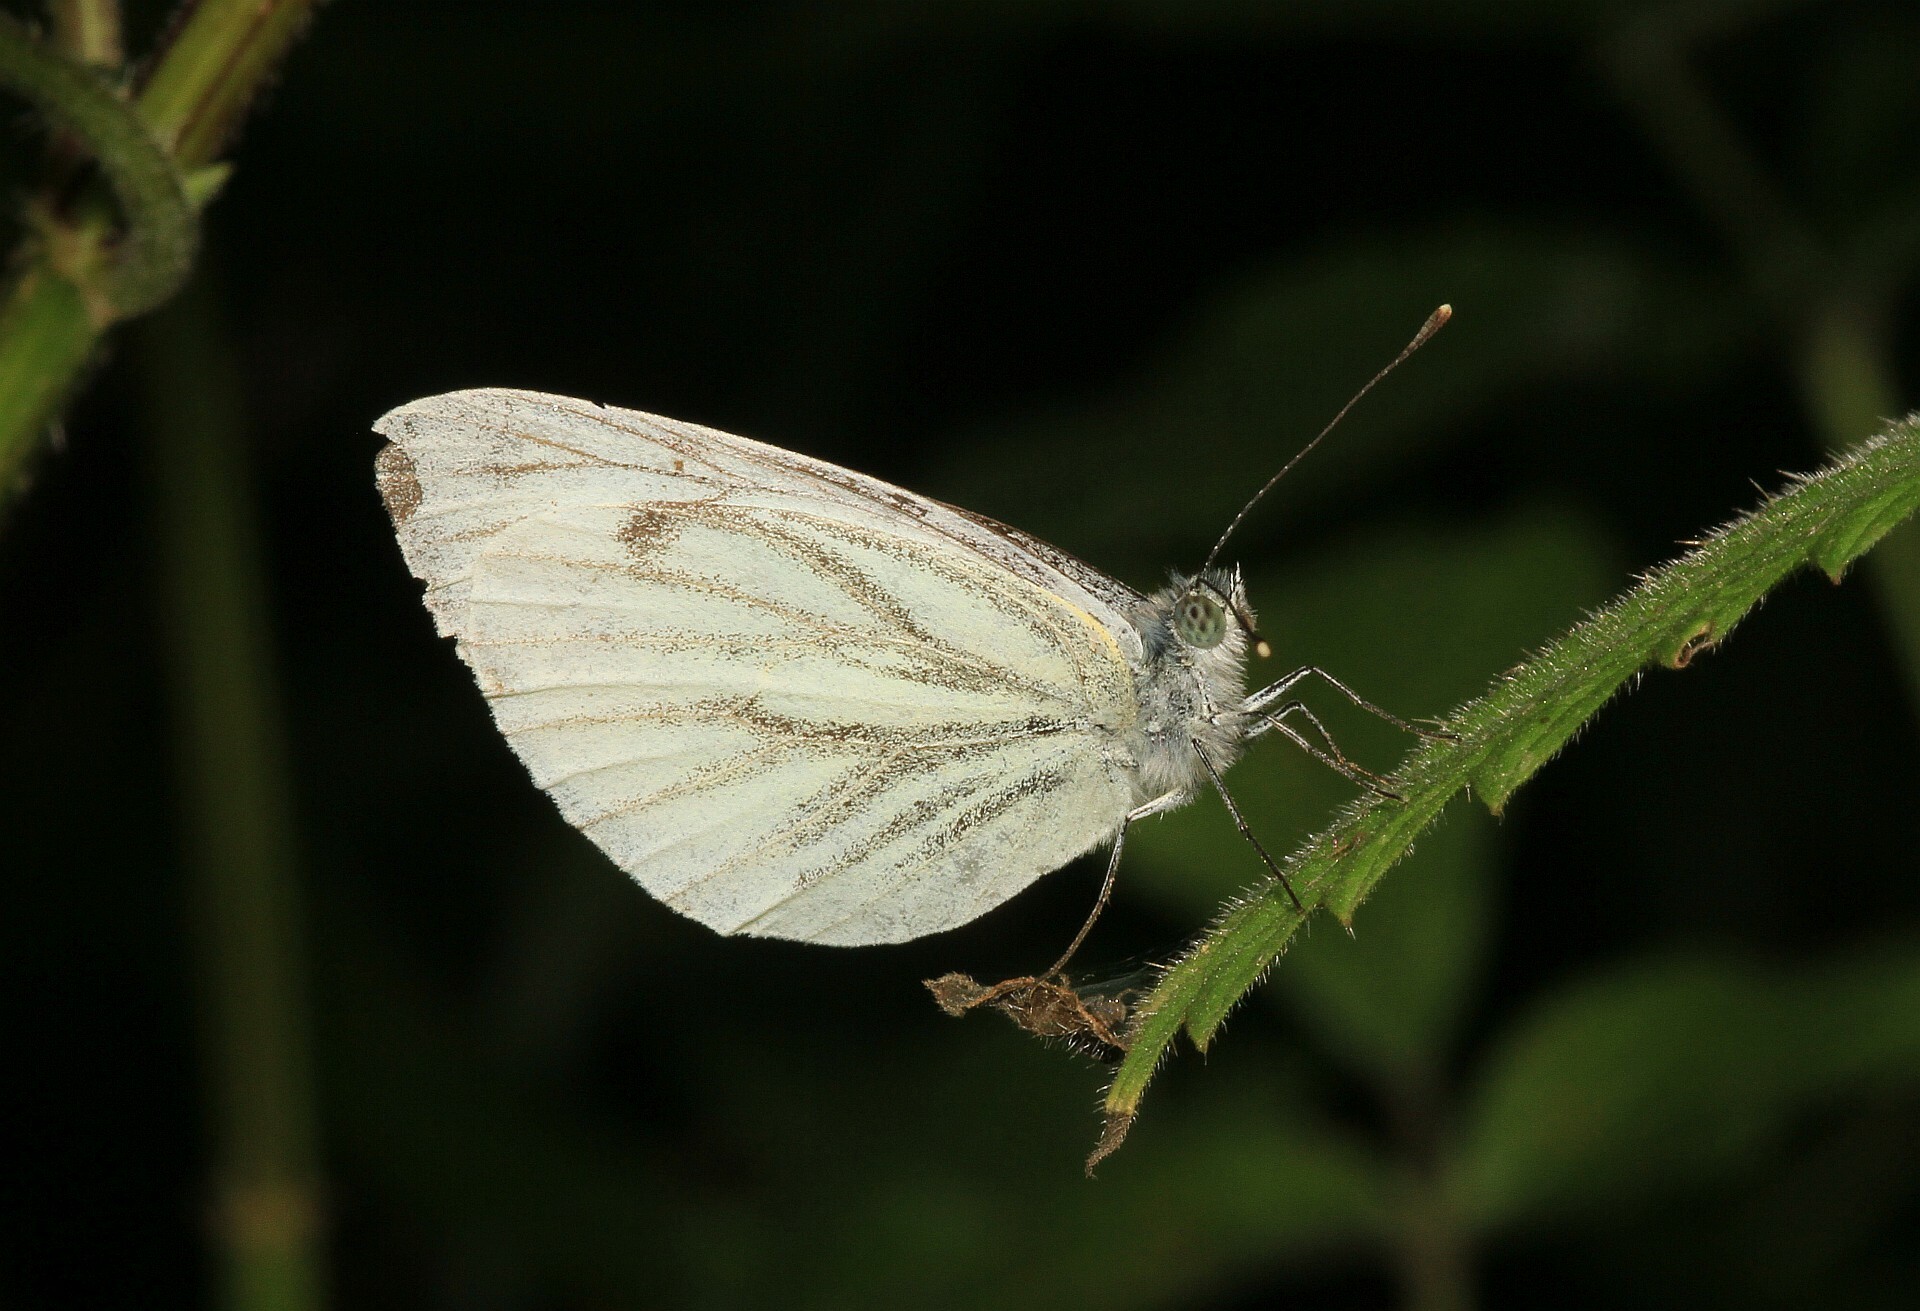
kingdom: Animalia
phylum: Arthropoda
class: Insecta
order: Lepidoptera
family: Pieridae
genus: Pieris
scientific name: Pieris napi
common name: Green-veined white
